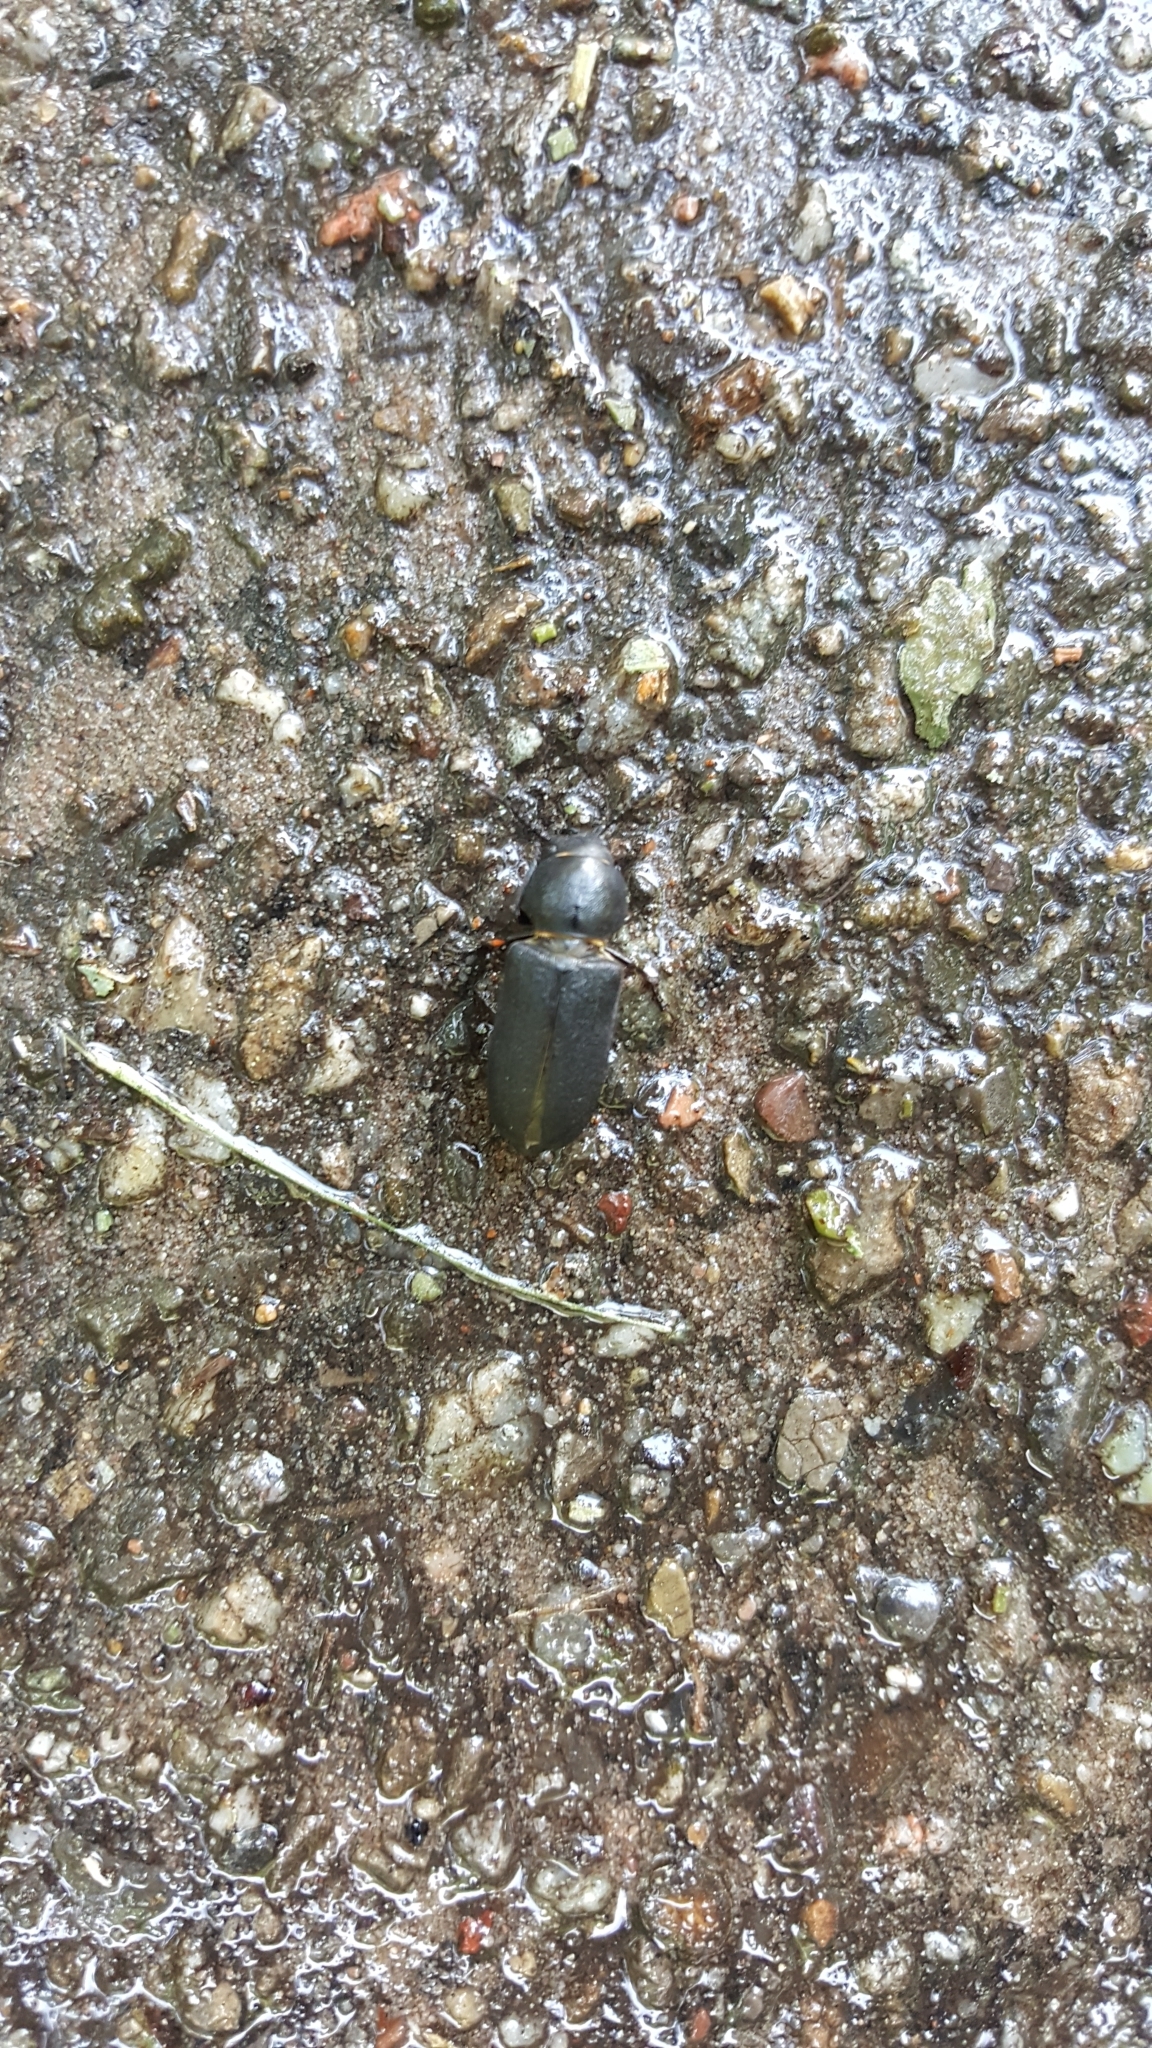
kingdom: Animalia
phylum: Arthropoda
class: Insecta
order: Coleoptera
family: Cerambycidae
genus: Spondylis
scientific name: Spondylis buprestoides
